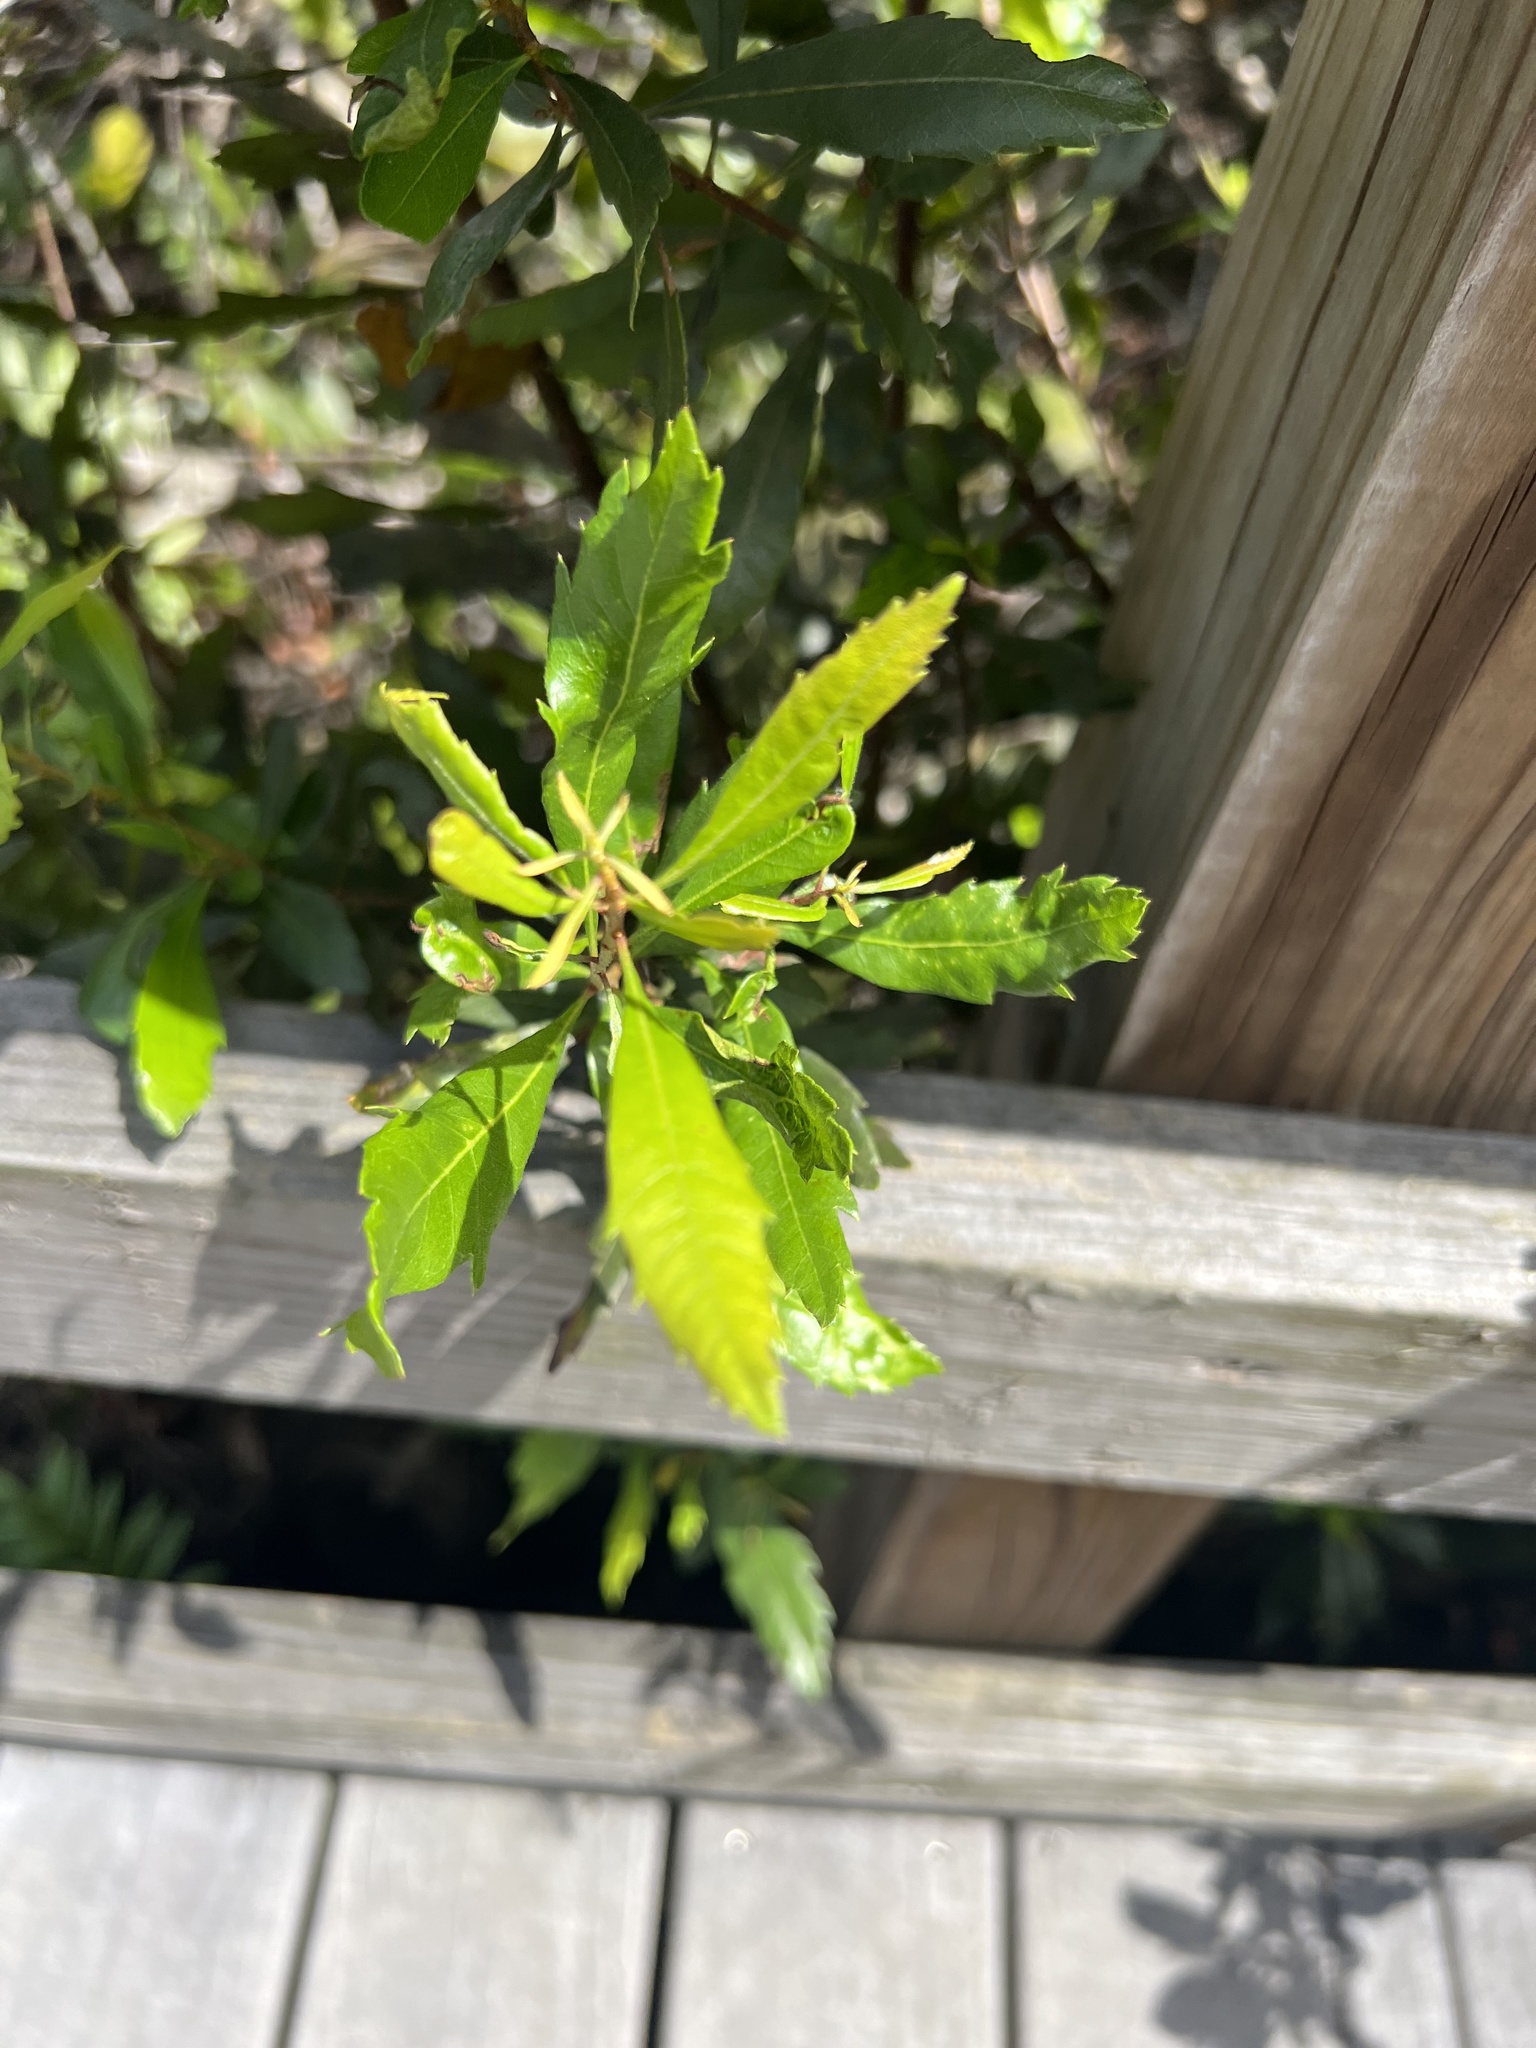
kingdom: Plantae
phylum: Tracheophyta
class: Magnoliopsida
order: Fagales
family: Myricaceae
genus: Morella
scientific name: Morella cerifera
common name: Wax myrtle
